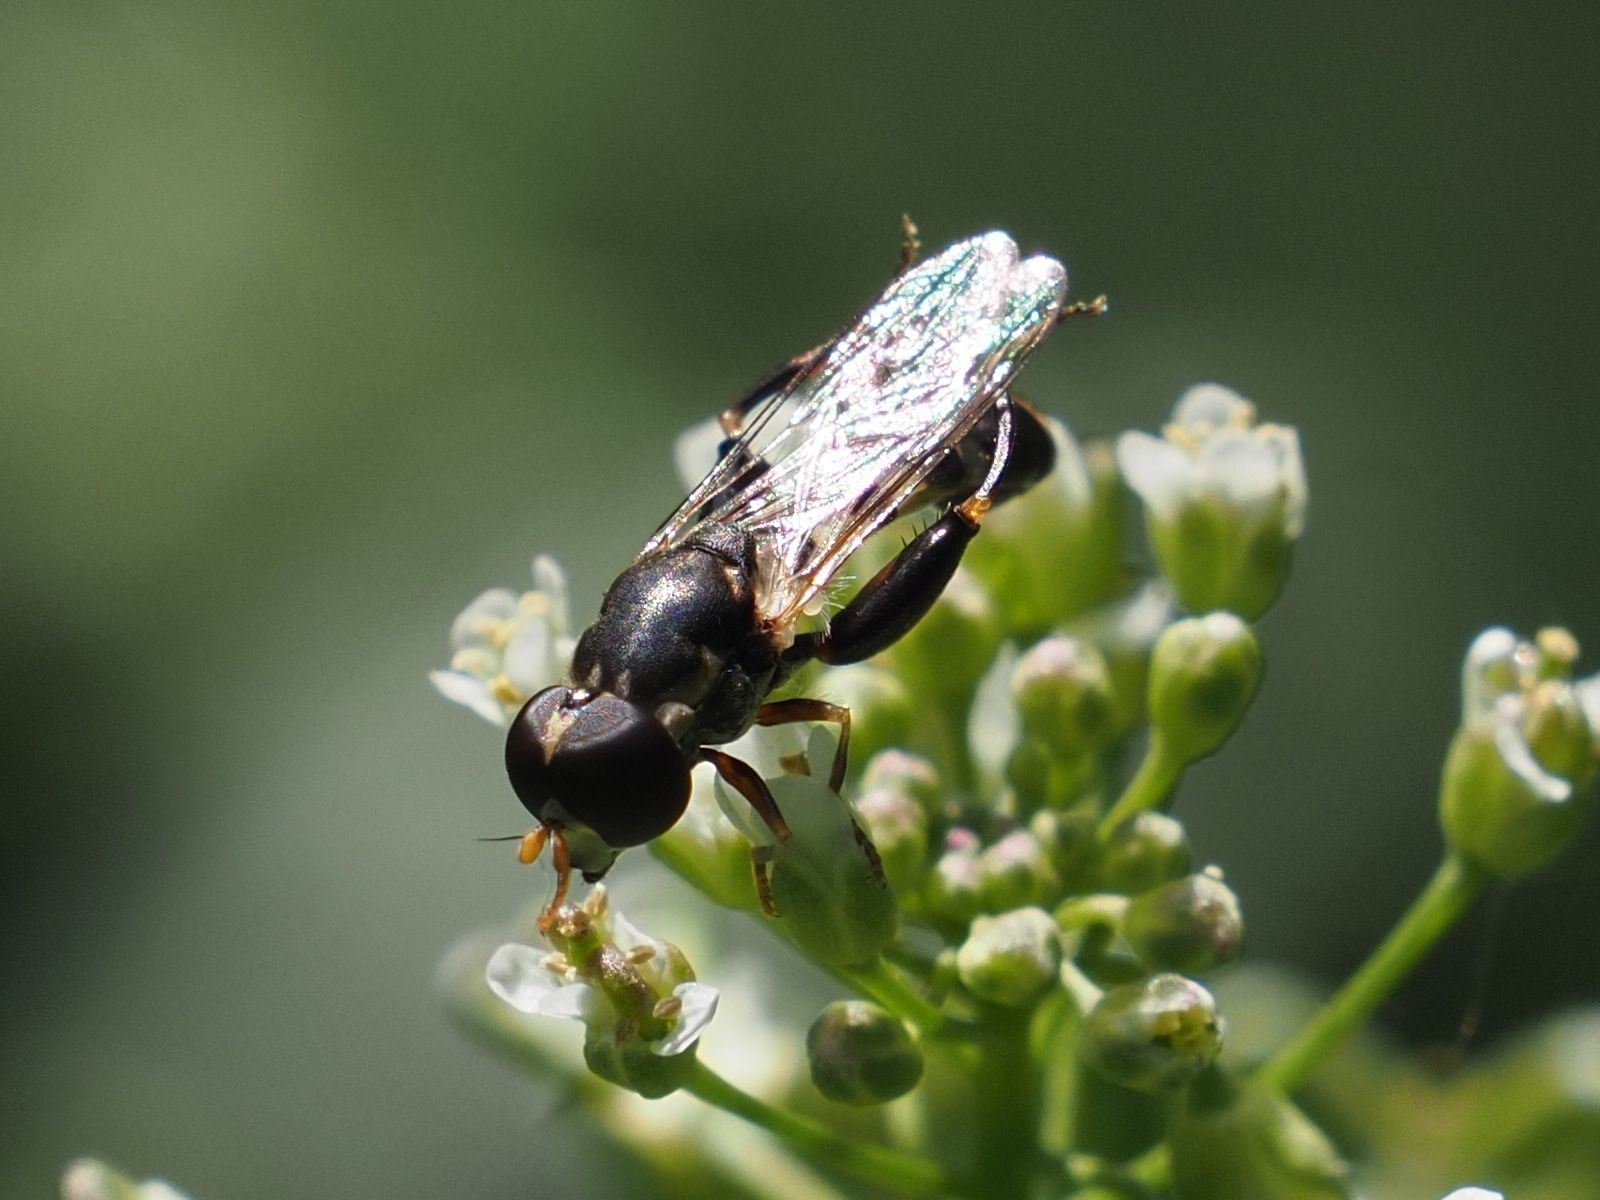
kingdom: Animalia
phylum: Arthropoda
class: Insecta
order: Diptera
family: Syrphidae
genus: Syritta
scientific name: Syritta pipiens
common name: Hover fly
